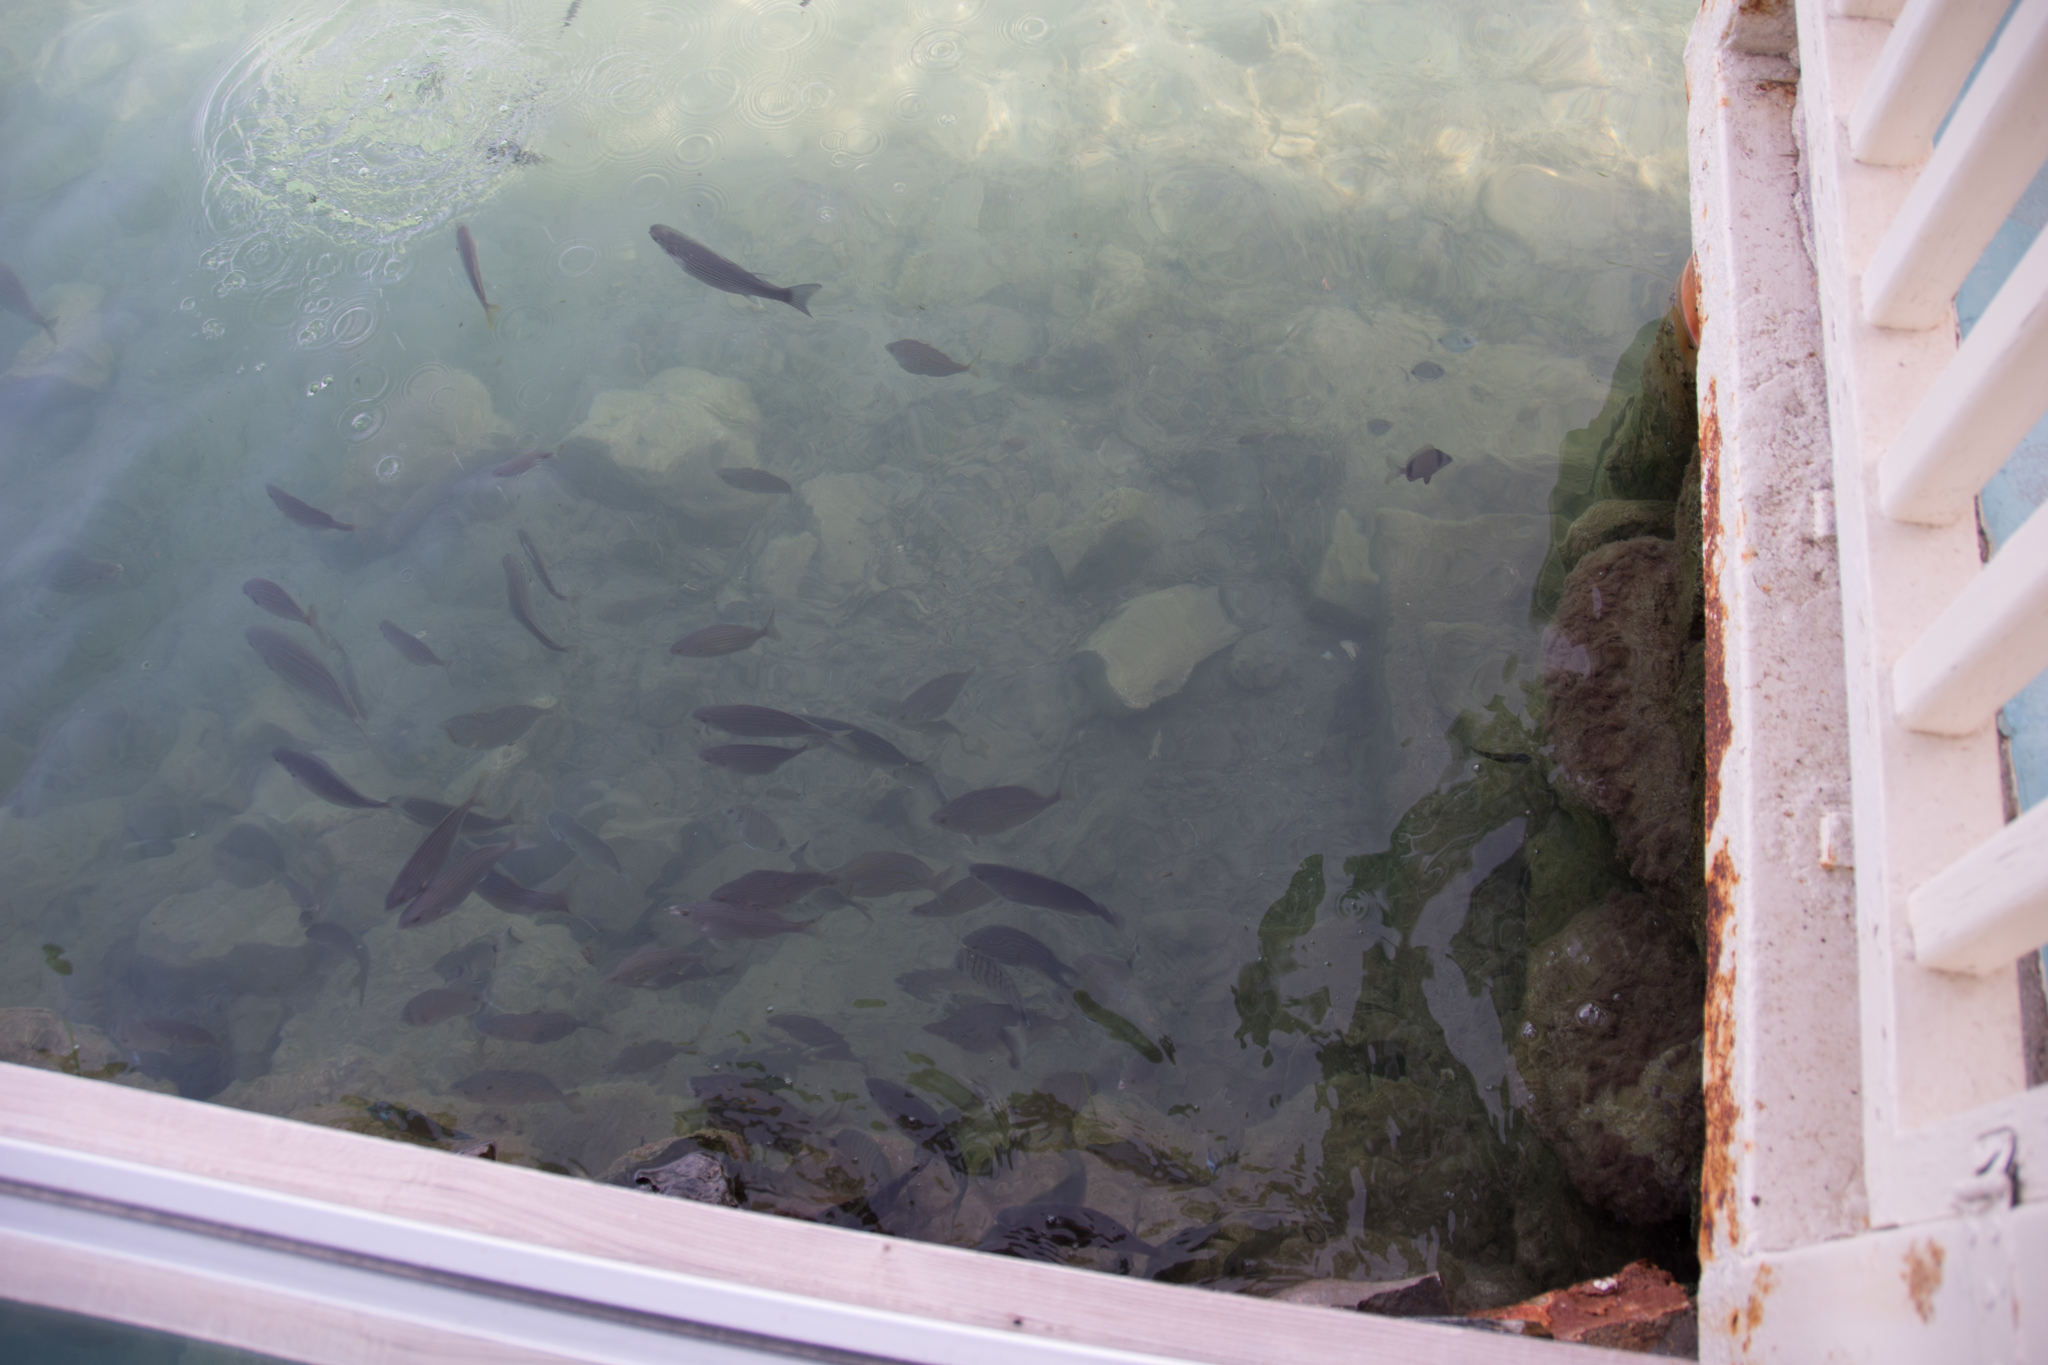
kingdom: Animalia
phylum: Chordata
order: Perciformes
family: Sparidae
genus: Sarpa
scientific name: Sarpa salpa
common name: Salema
